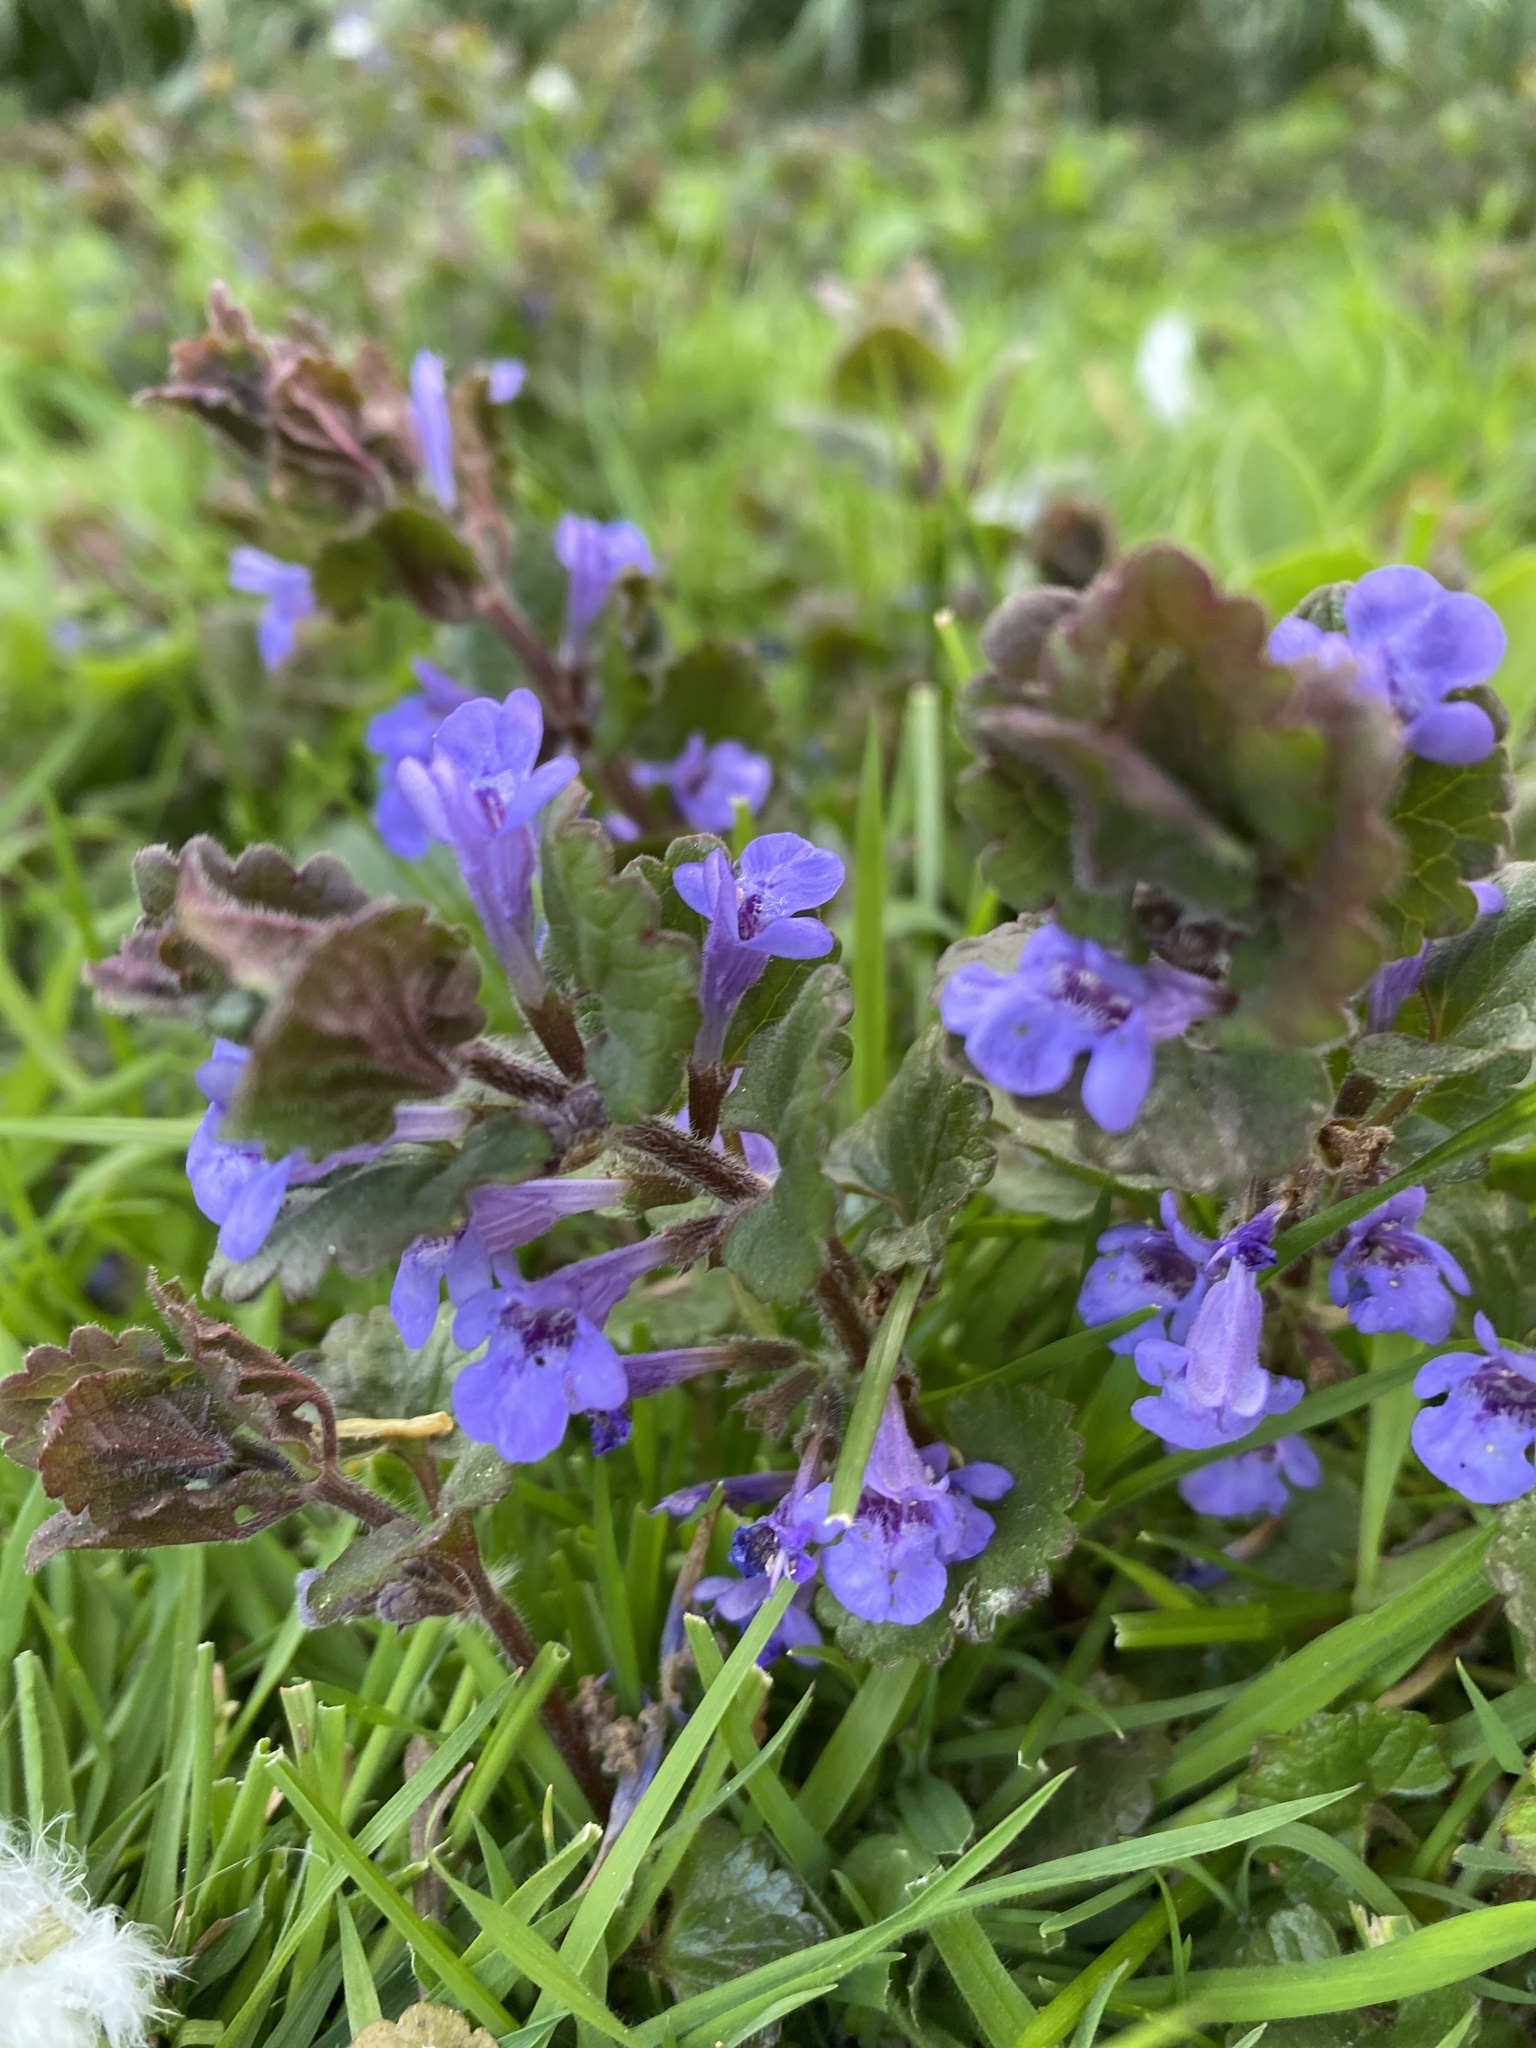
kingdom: Plantae
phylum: Tracheophyta
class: Magnoliopsida
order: Lamiales
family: Lamiaceae
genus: Glechoma
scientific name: Glechoma hederacea
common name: Ground ivy
